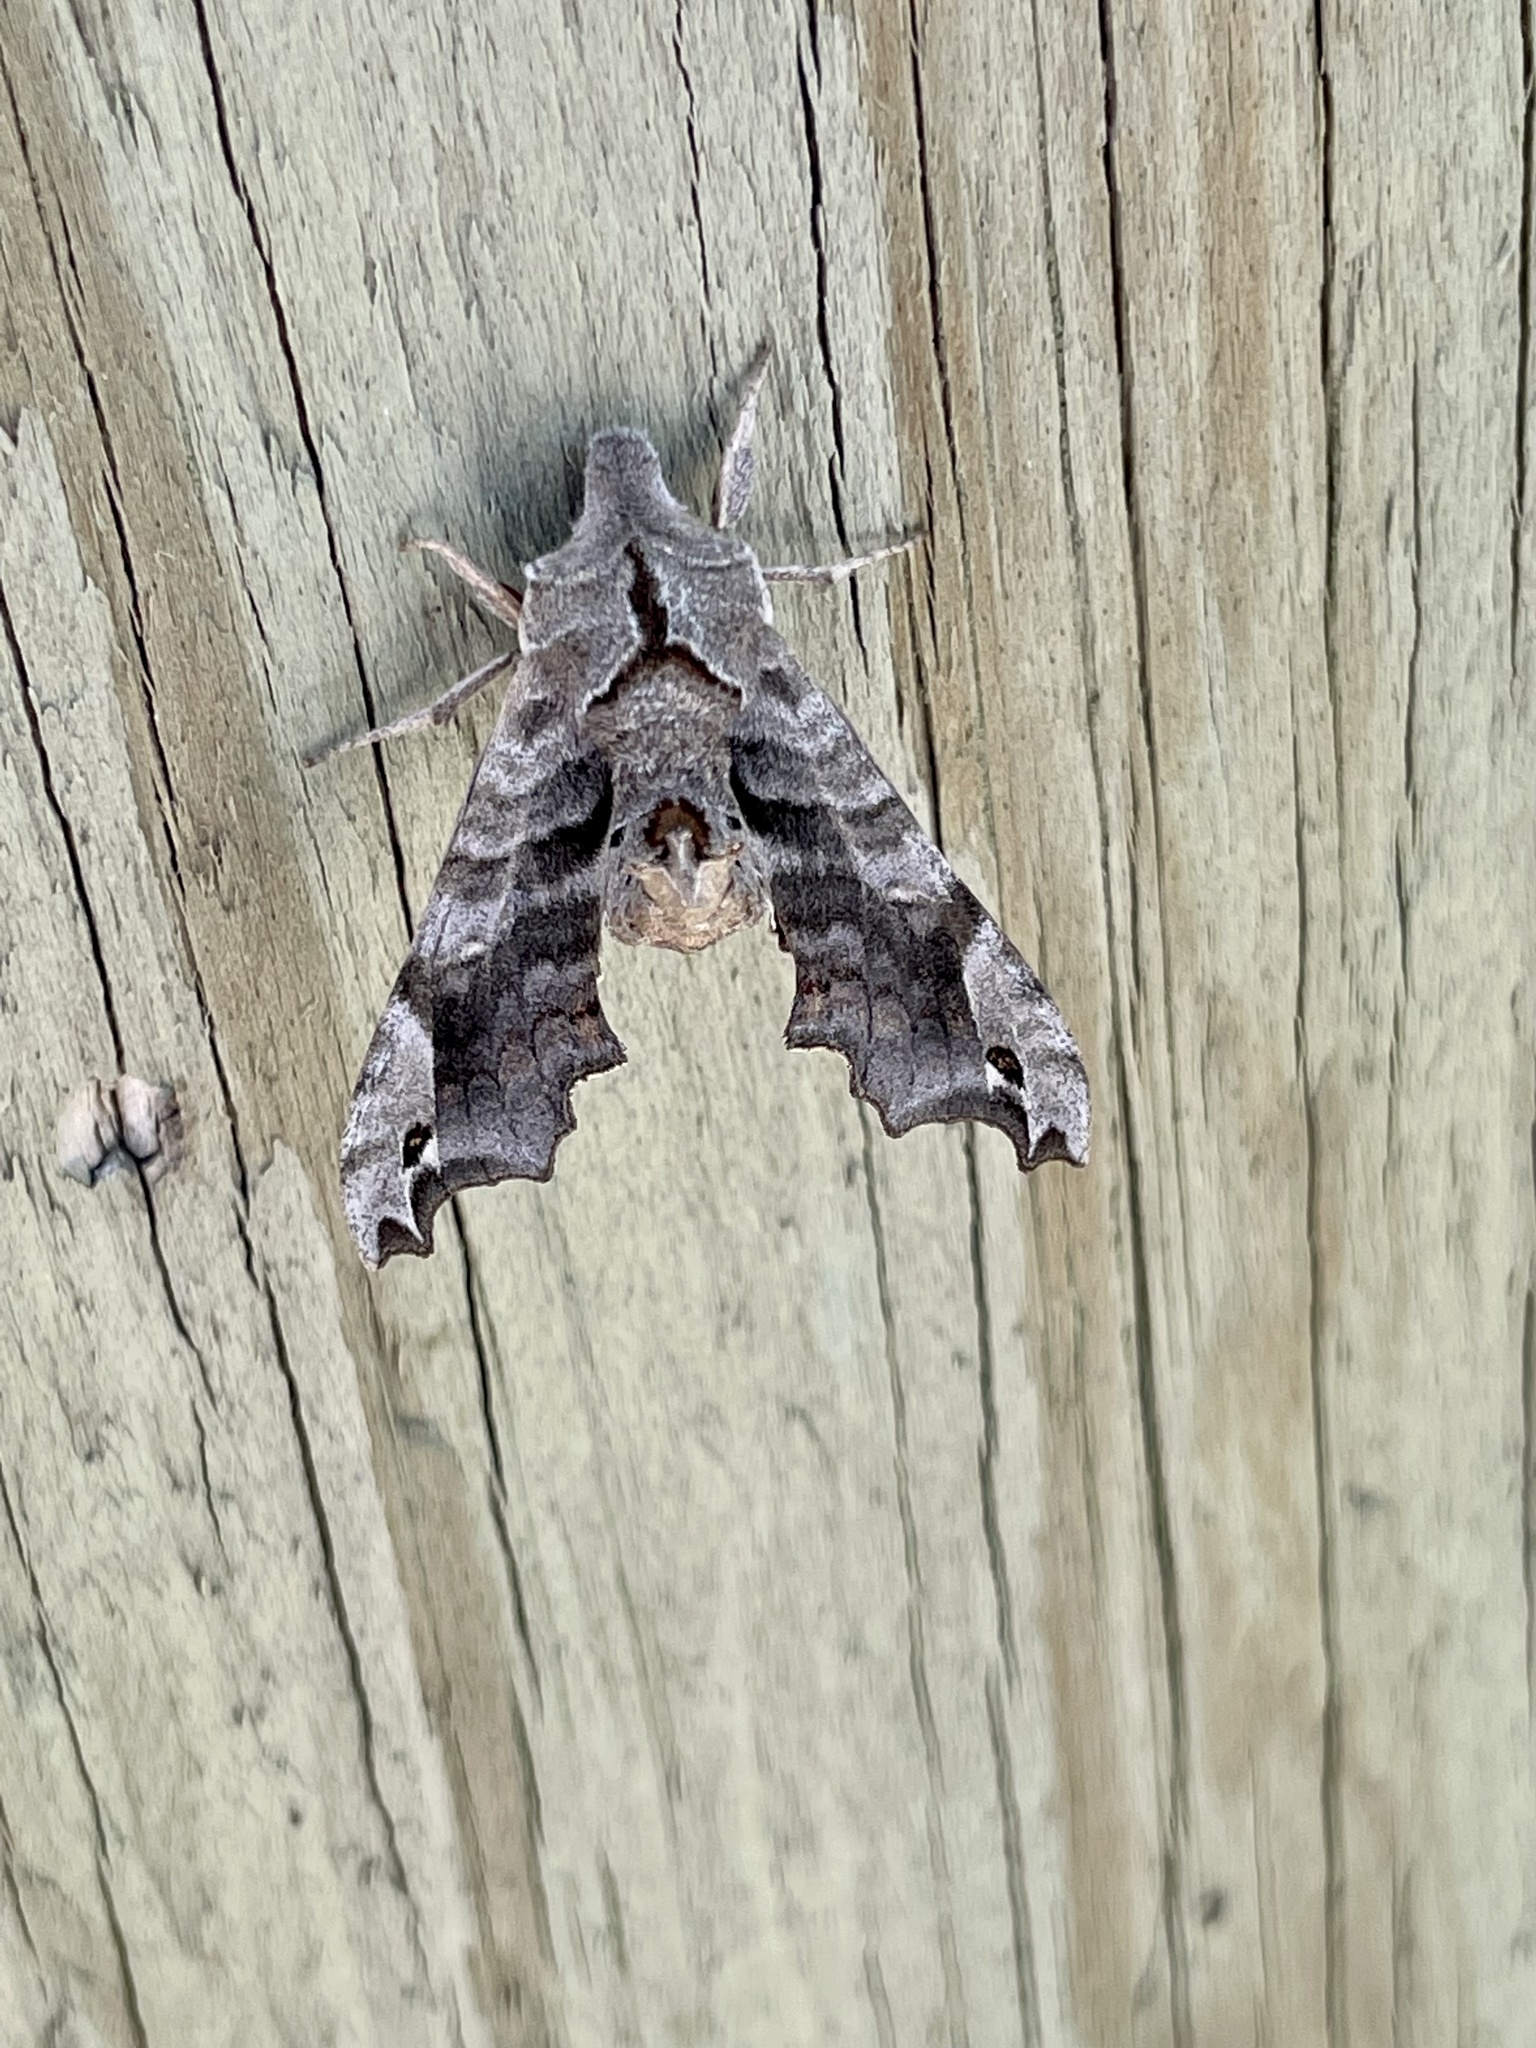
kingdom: Animalia
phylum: Arthropoda
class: Insecta
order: Lepidoptera
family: Sphingidae
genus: Deidamia
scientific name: Deidamia inscriptum
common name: Lettered sphinx
